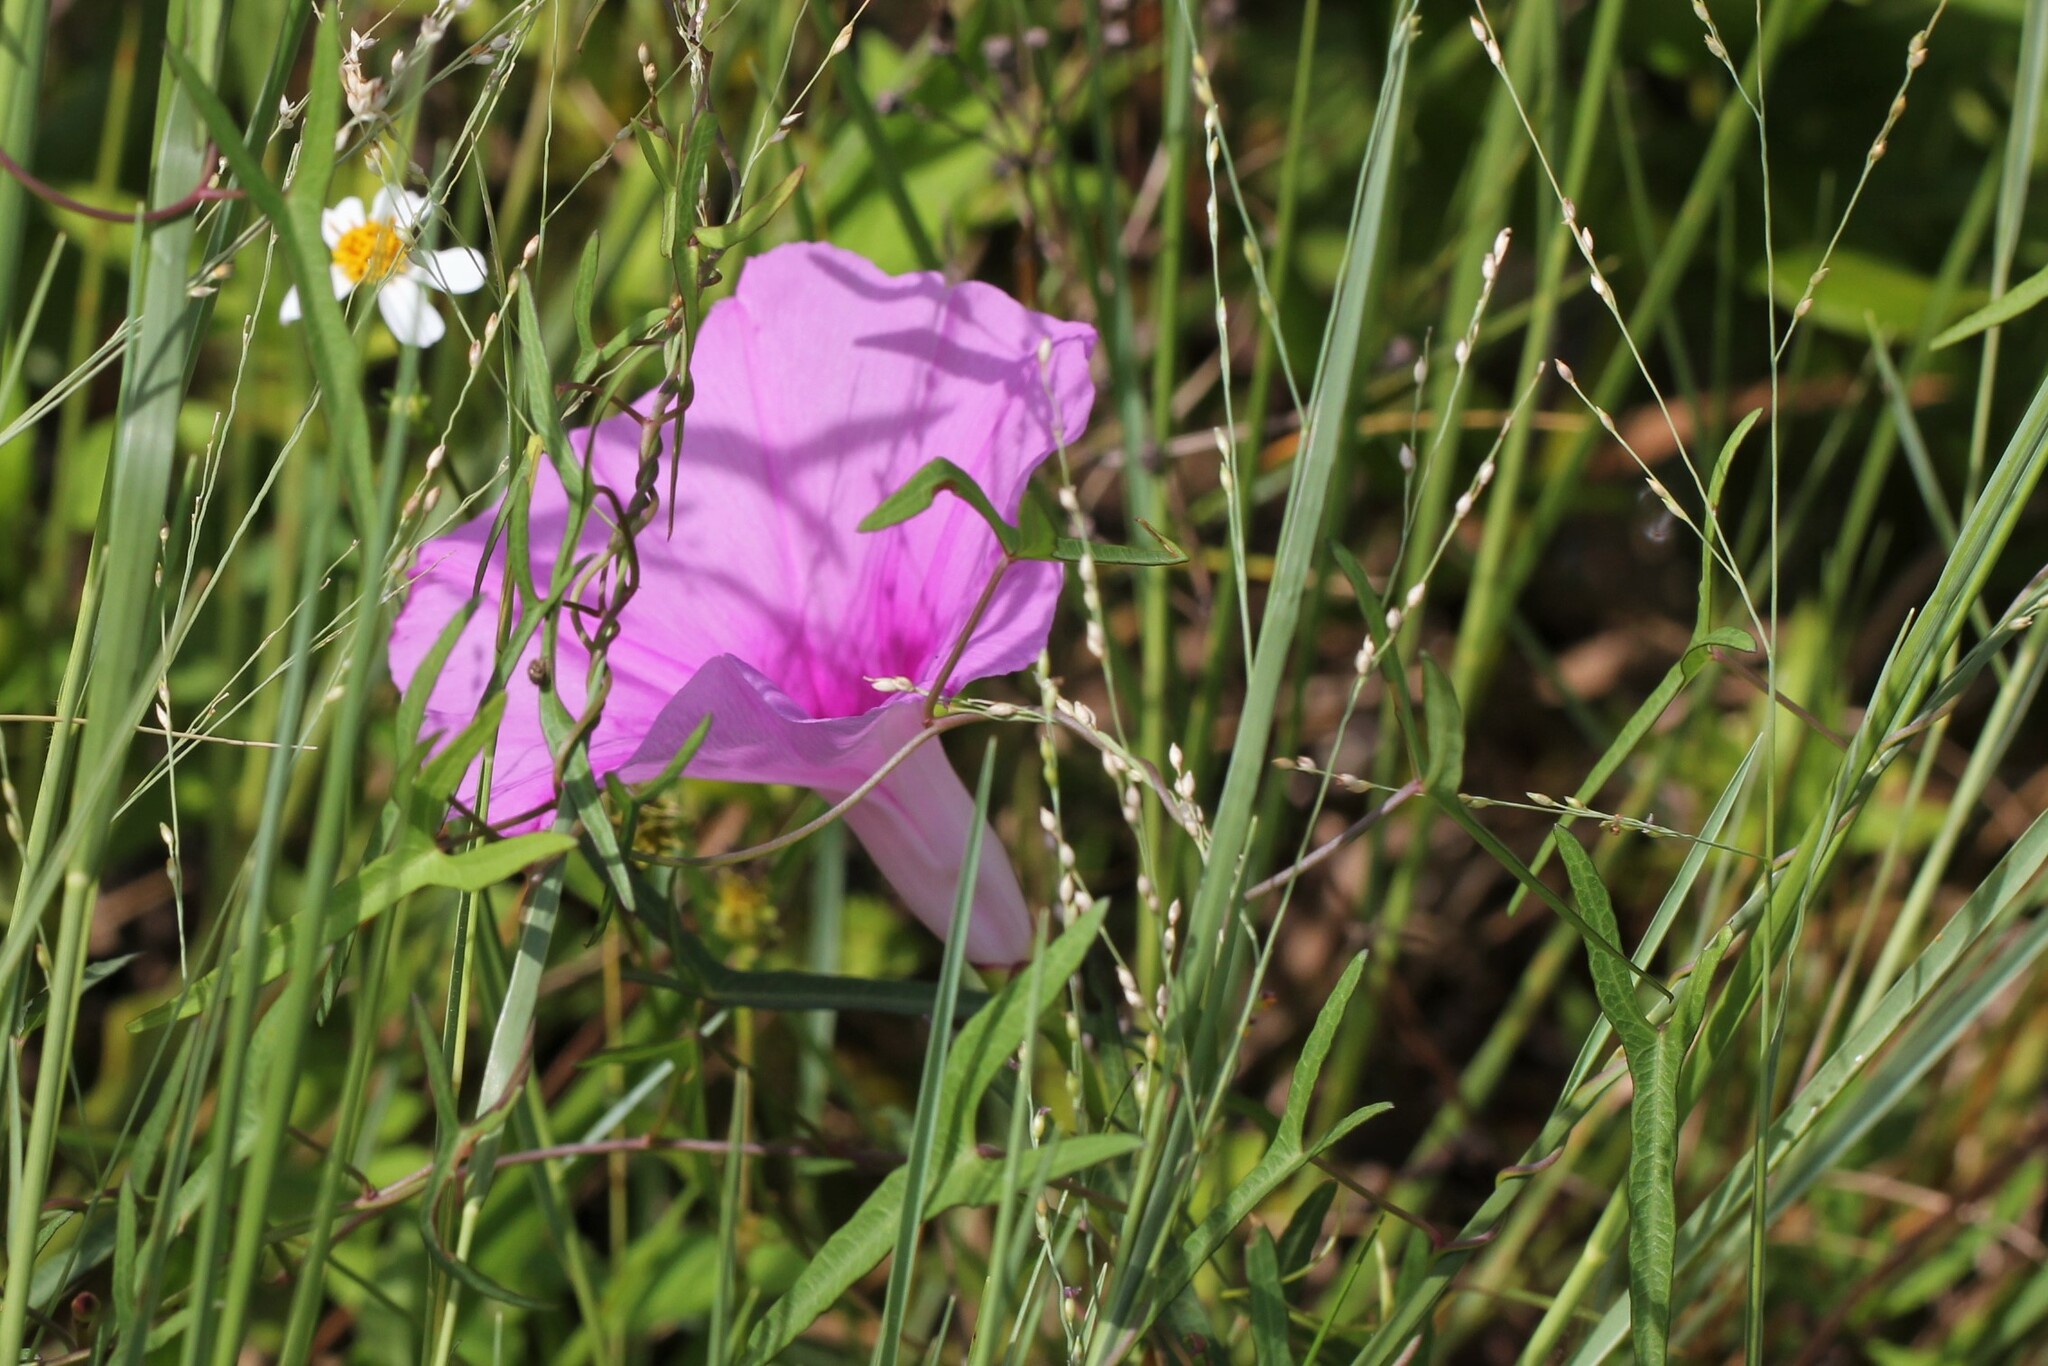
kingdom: Plantae
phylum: Tracheophyta
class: Magnoliopsida
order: Solanales
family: Convolvulaceae
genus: Ipomoea
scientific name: Ipomoea sagittata
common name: Saltmarsh morning glory
